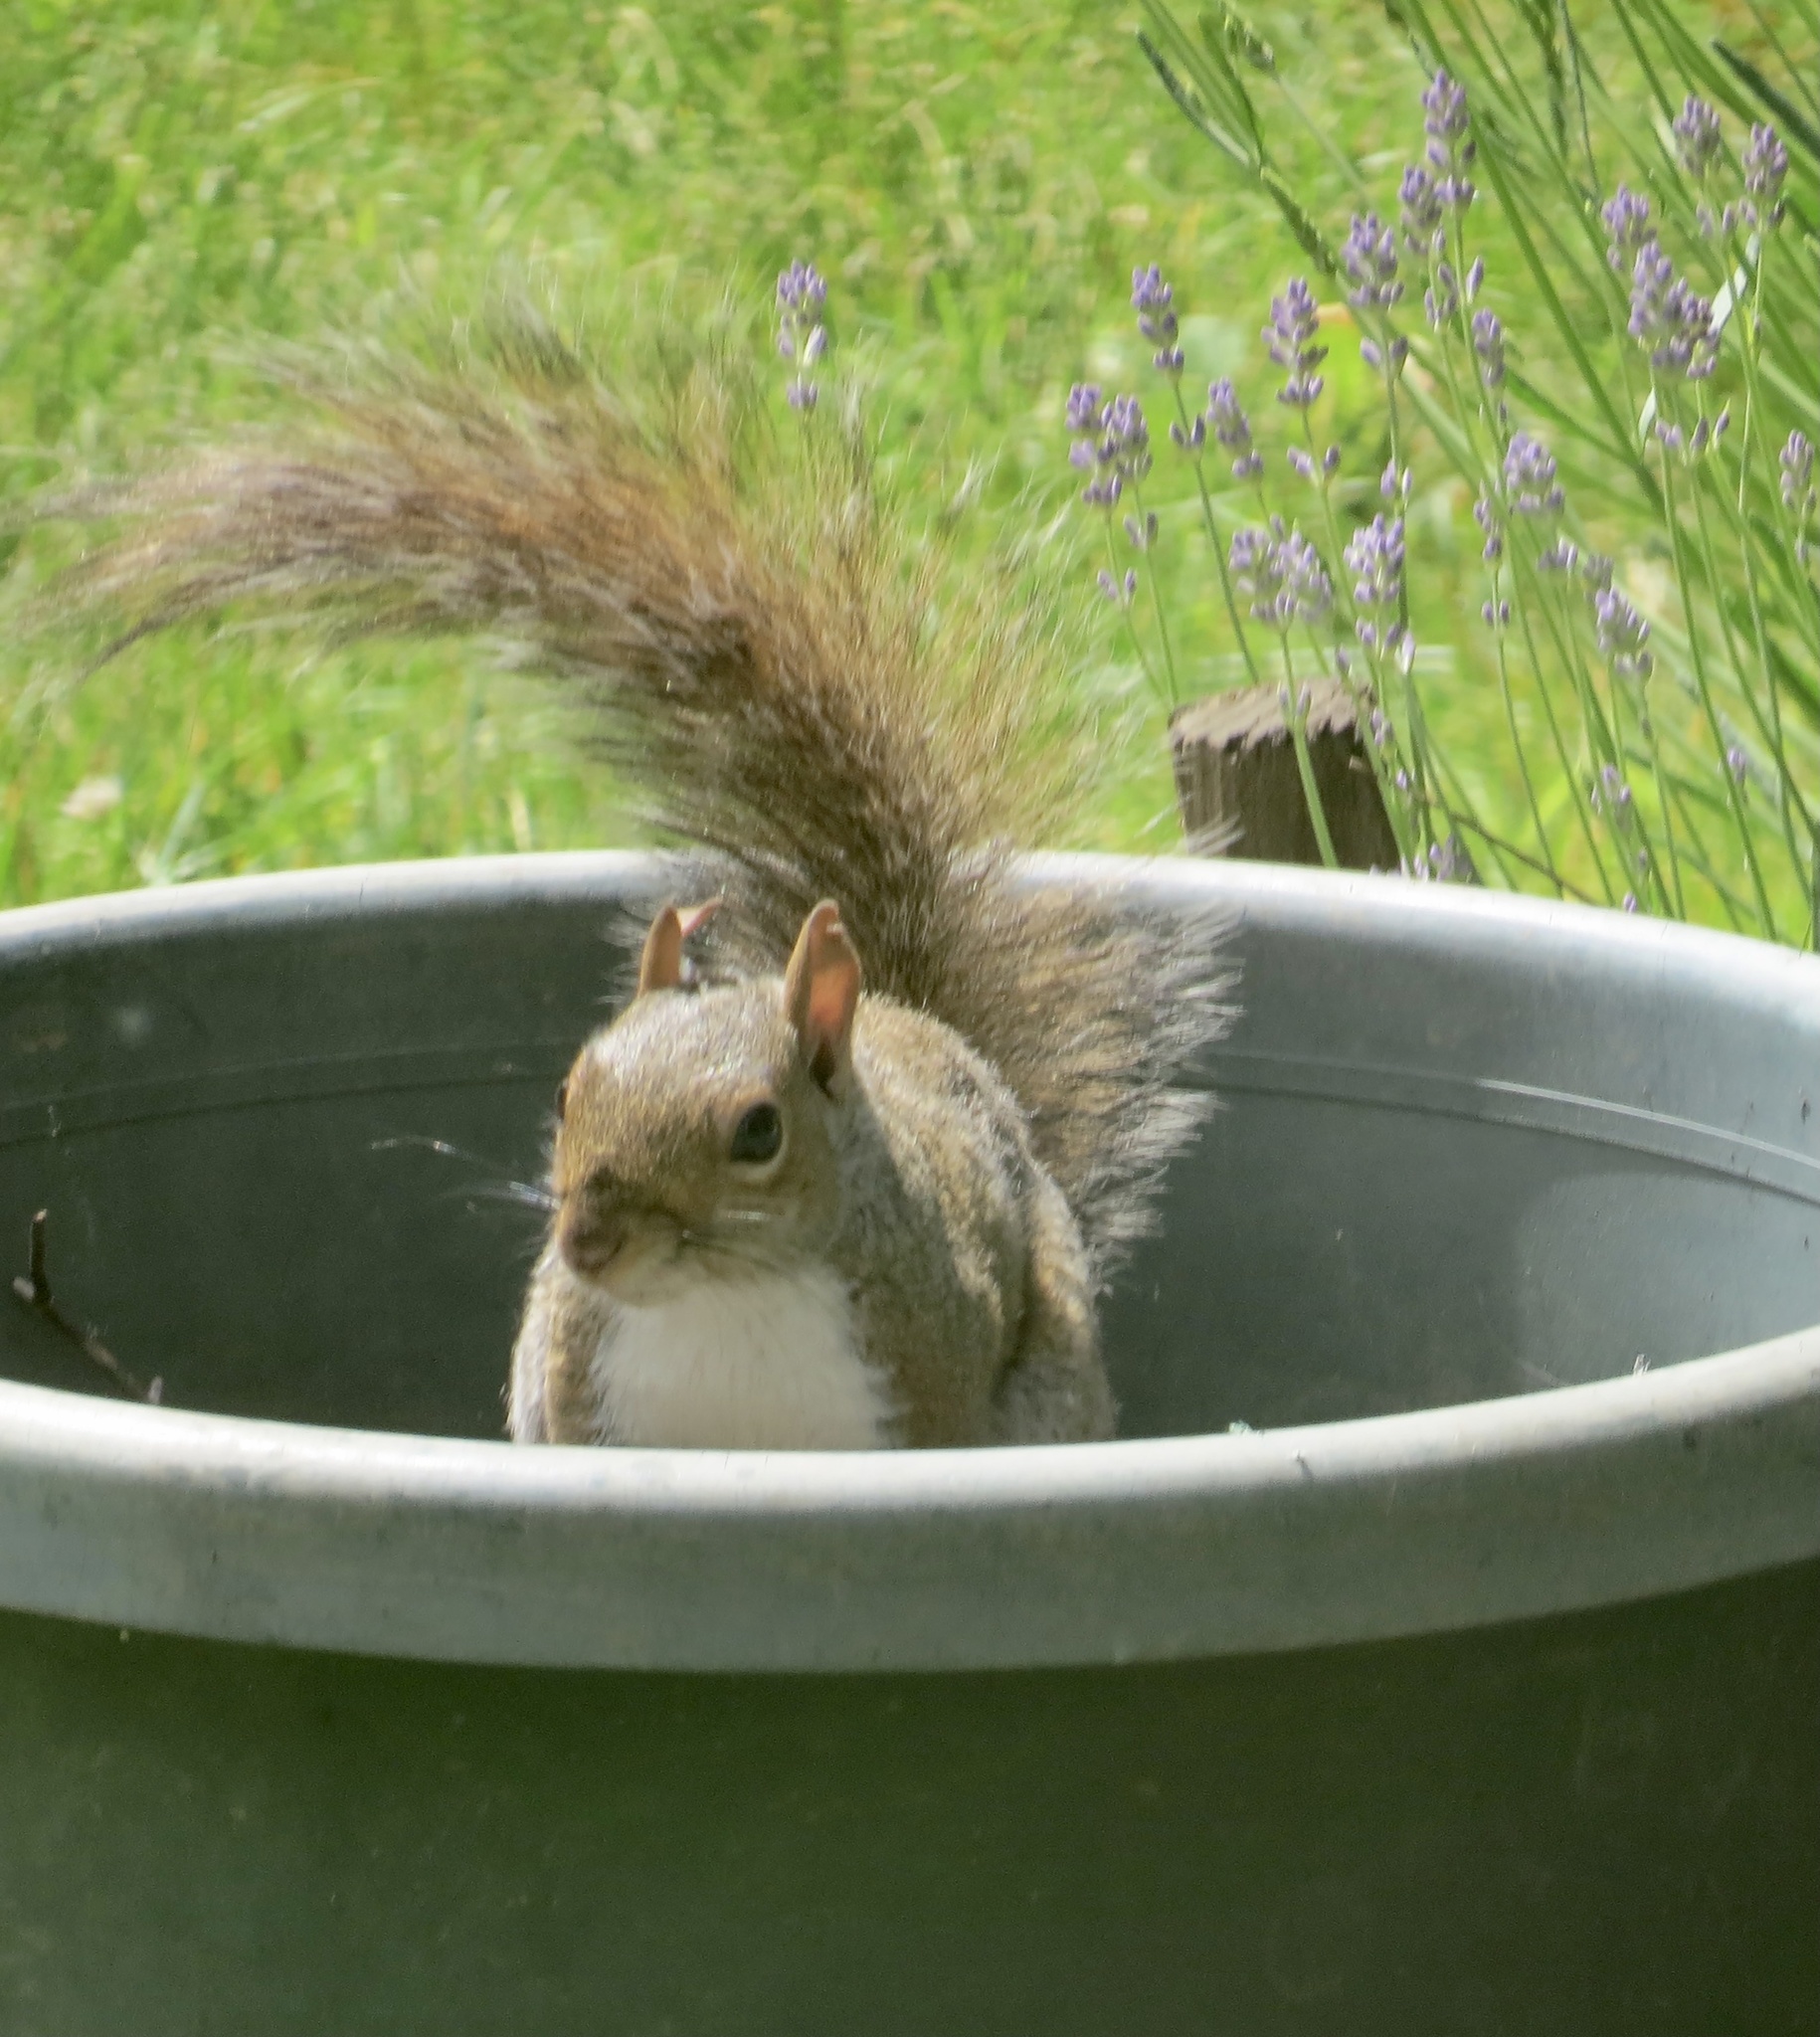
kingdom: Animalia
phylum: Chordata
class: Mammalia
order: Rodentia
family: Sciuridae
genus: Sciurus
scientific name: Sciurus carolinensis
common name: Eastern gray squirrel
